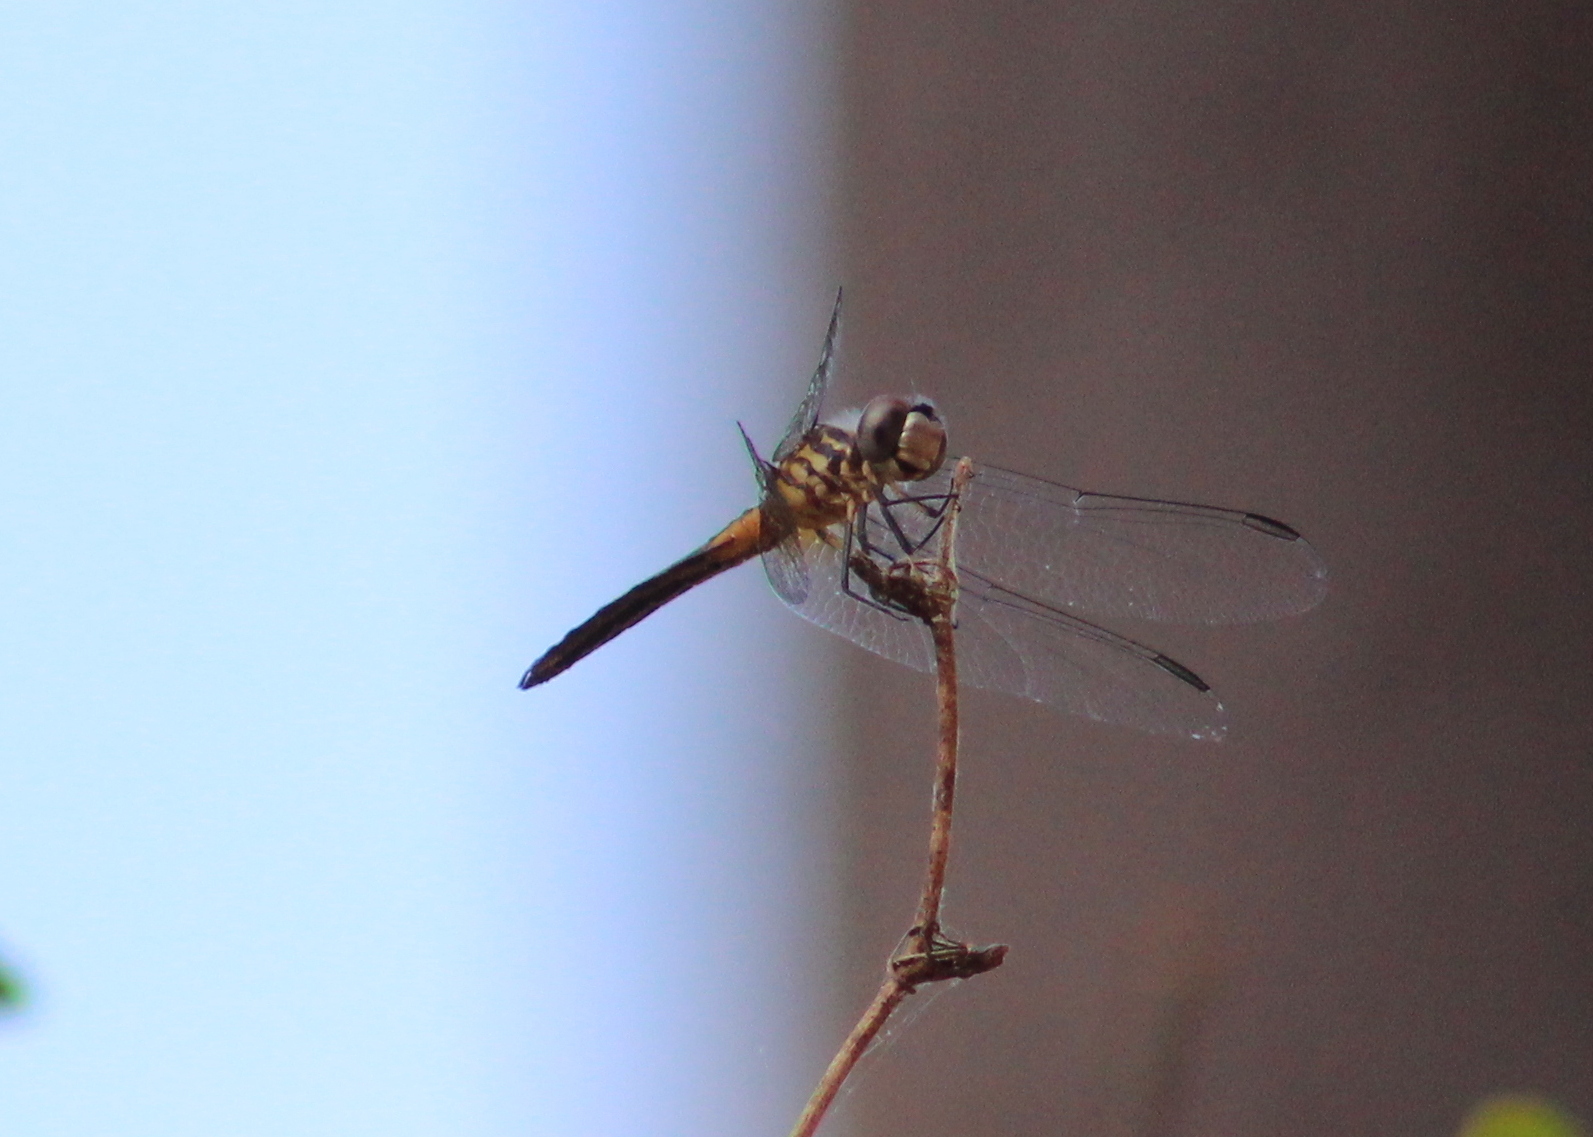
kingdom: Animalia
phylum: Arthropoda
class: Insecta
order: Odonata
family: Libellulidae
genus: Pachydiplax
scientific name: Pachydiplax longipennis
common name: Blue dasher
